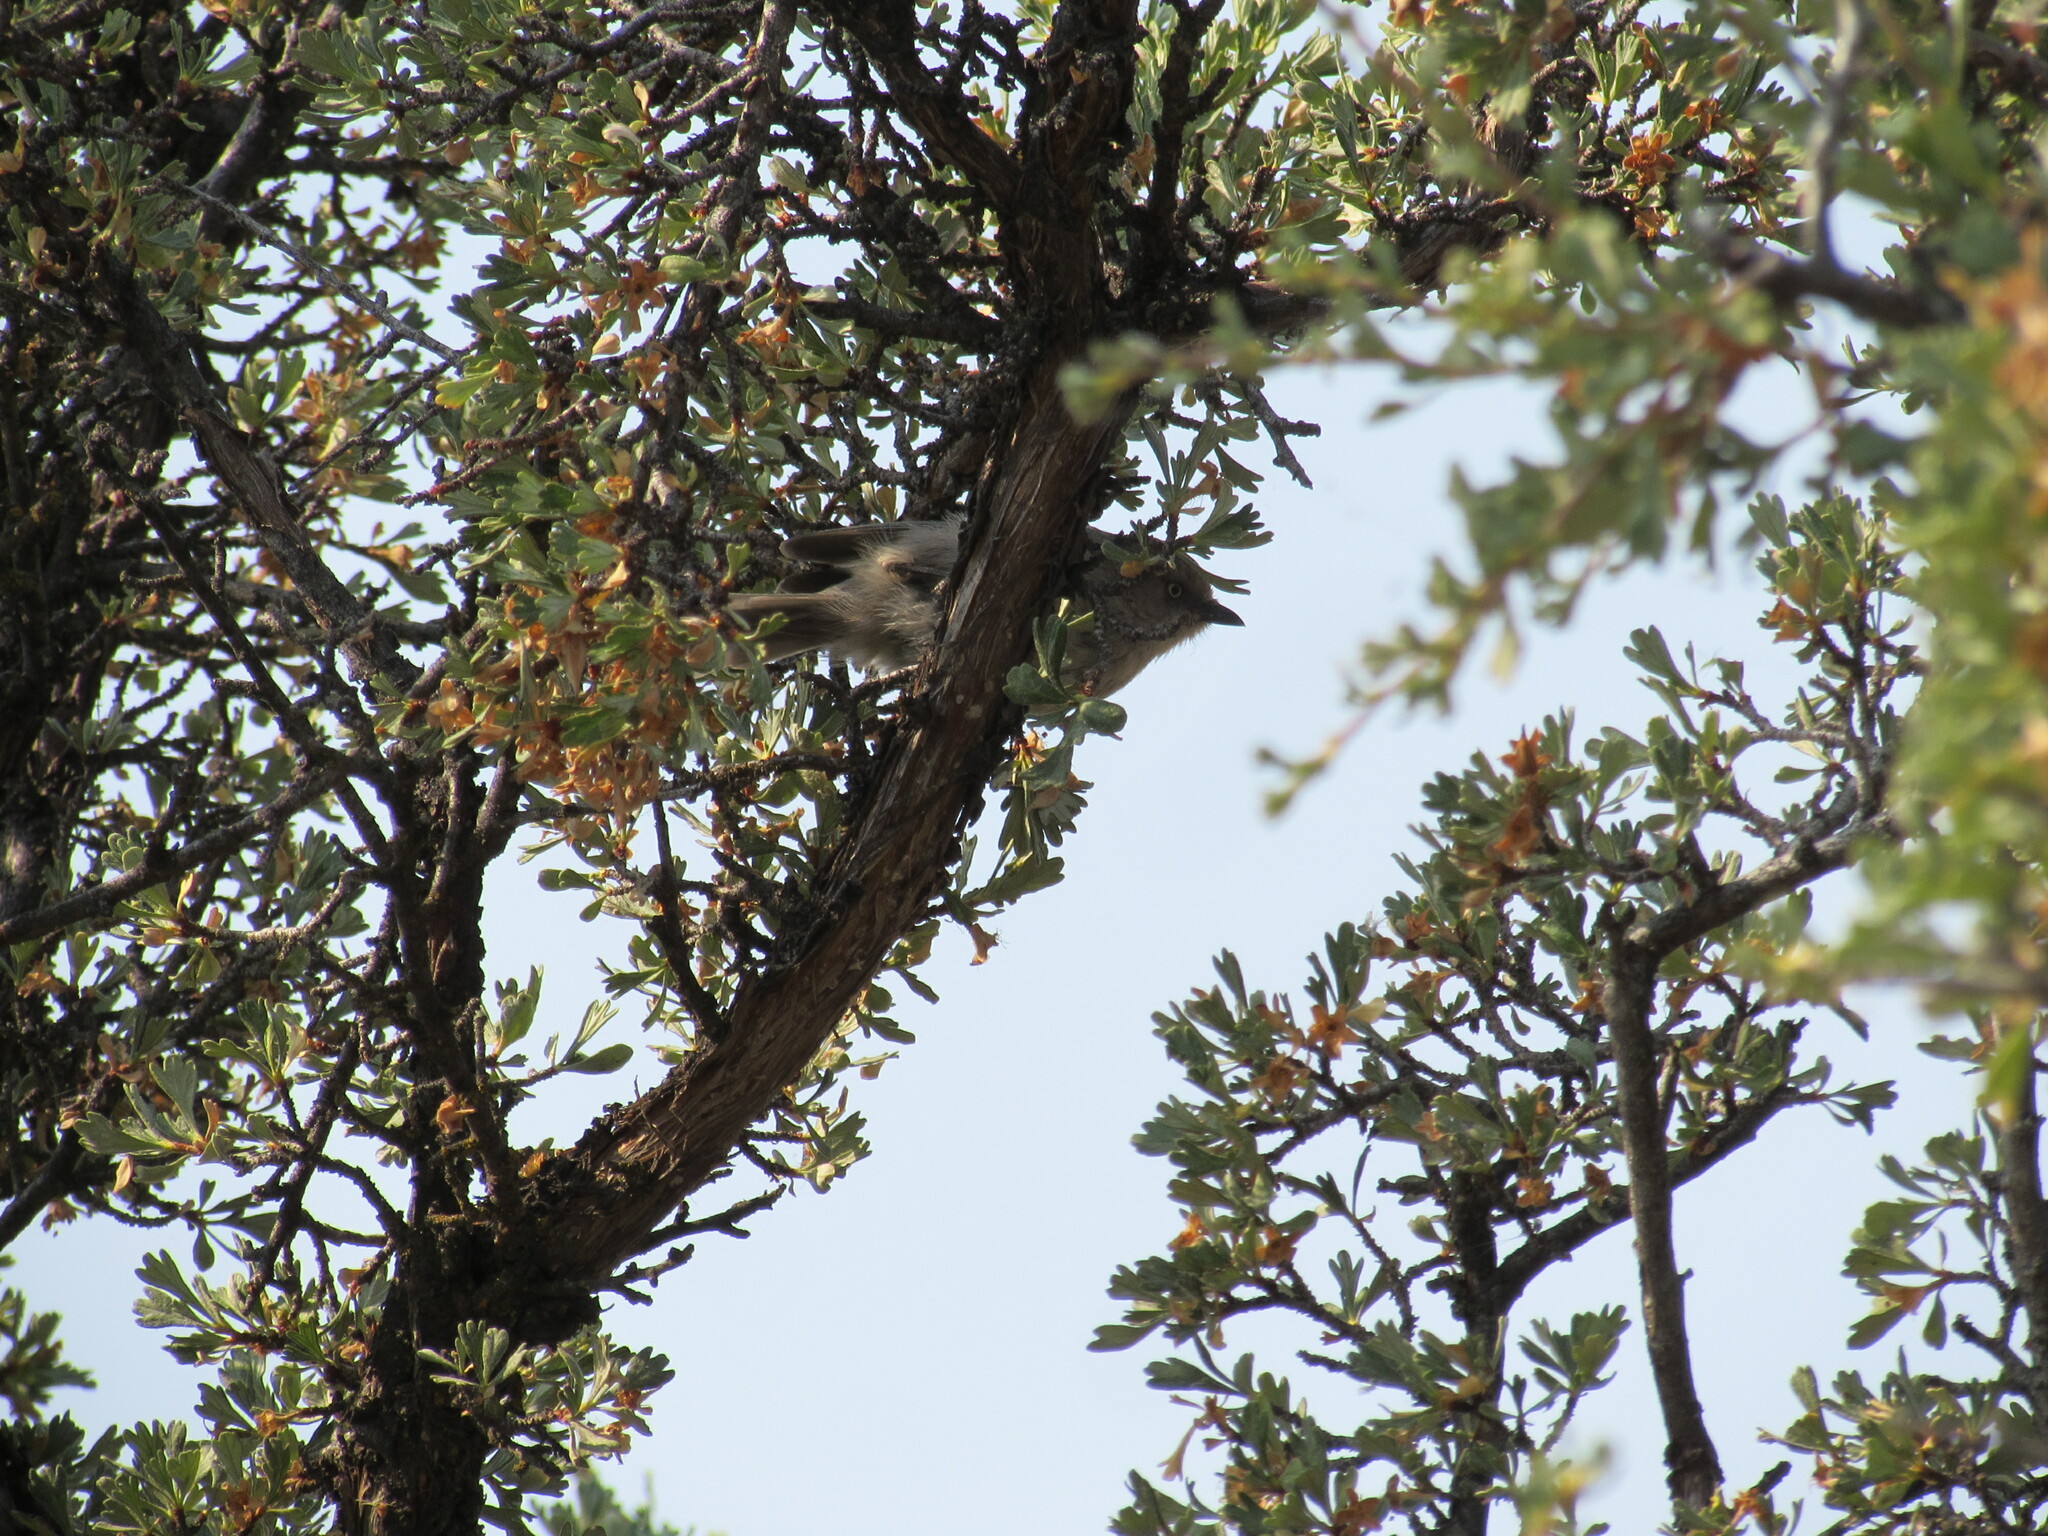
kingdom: Animalia
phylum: Chordata
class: Aves
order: Passeriformes
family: Aegithalidae
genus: Psaltriparus
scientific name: Psaltriparus minimus
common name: American bushtit
